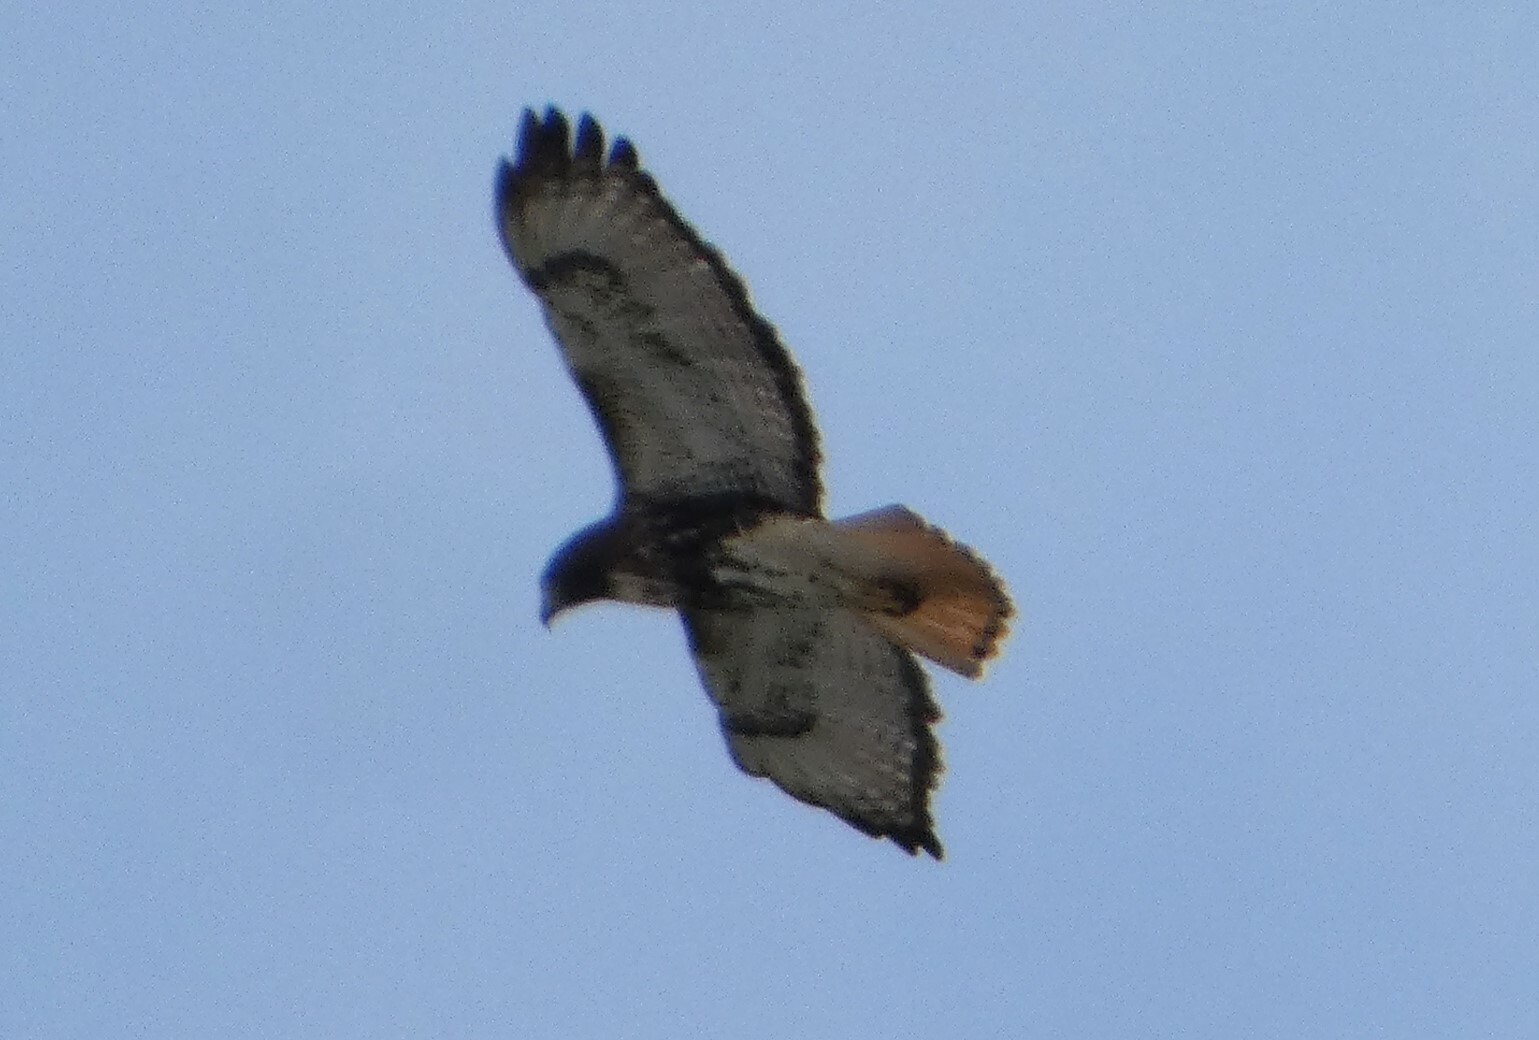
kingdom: Animalia
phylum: Chordata
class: Aves
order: Accipitriformes
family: Accipitridae
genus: Buteo
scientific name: Buteo jamaicensis
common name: Red-tailed hawk
